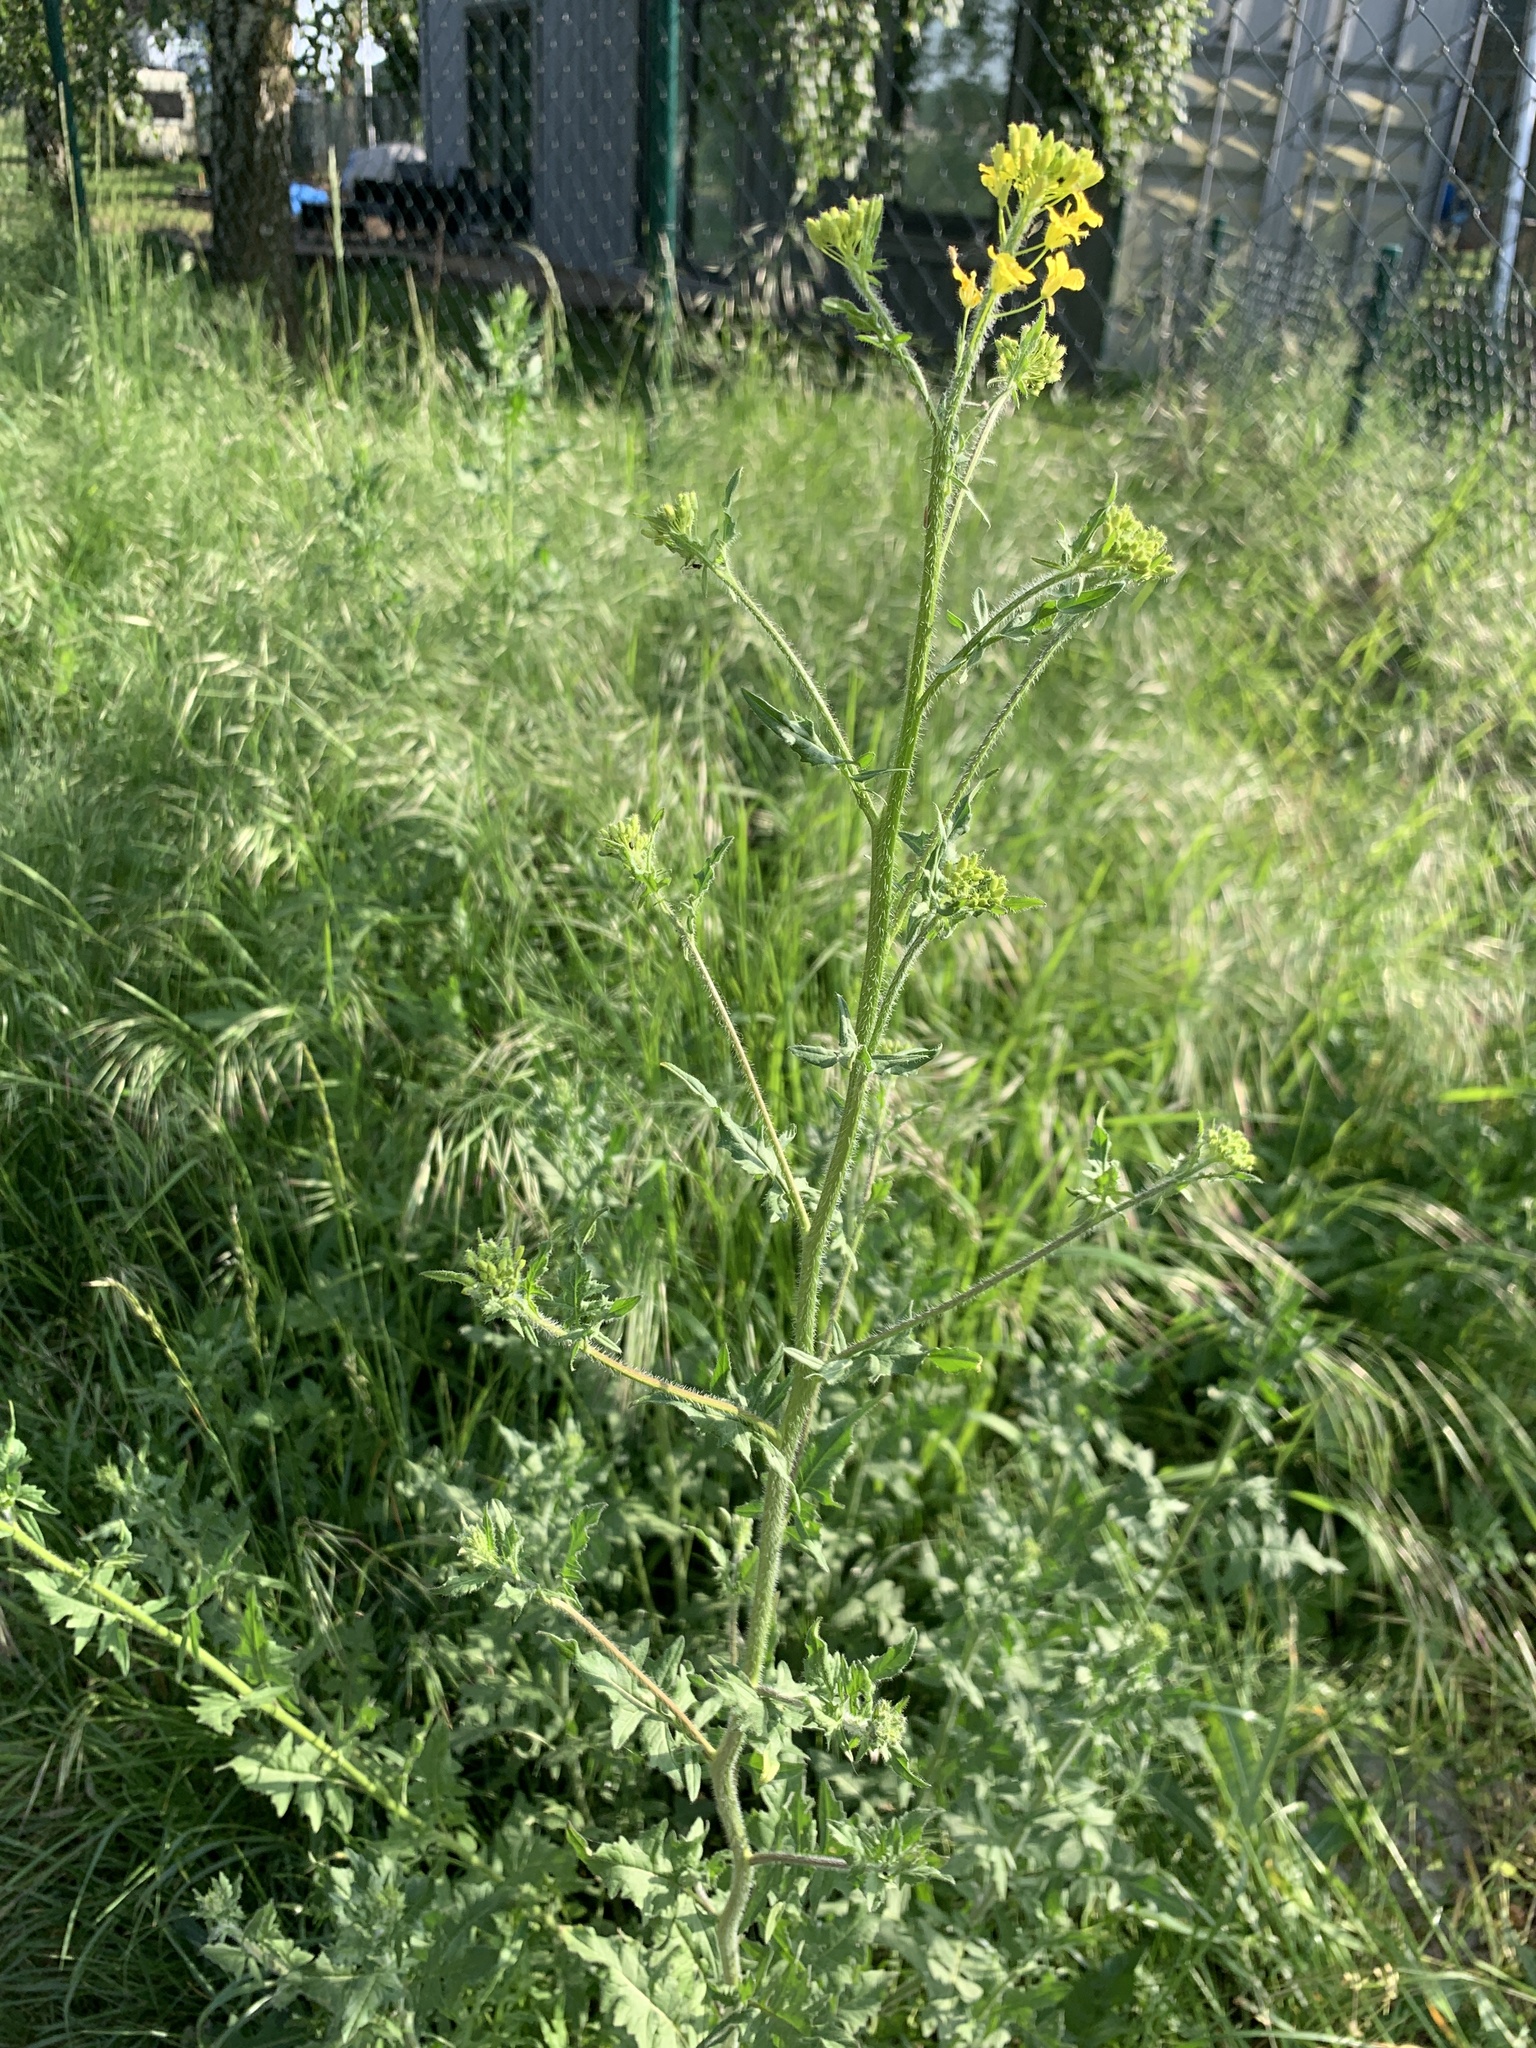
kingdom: Plantae
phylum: Tracheophyta
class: Magnoliopsida
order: Brassicales
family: Brassicaceae
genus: Sisymbrium
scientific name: Sisymbrium loeselii
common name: False london-rocket
